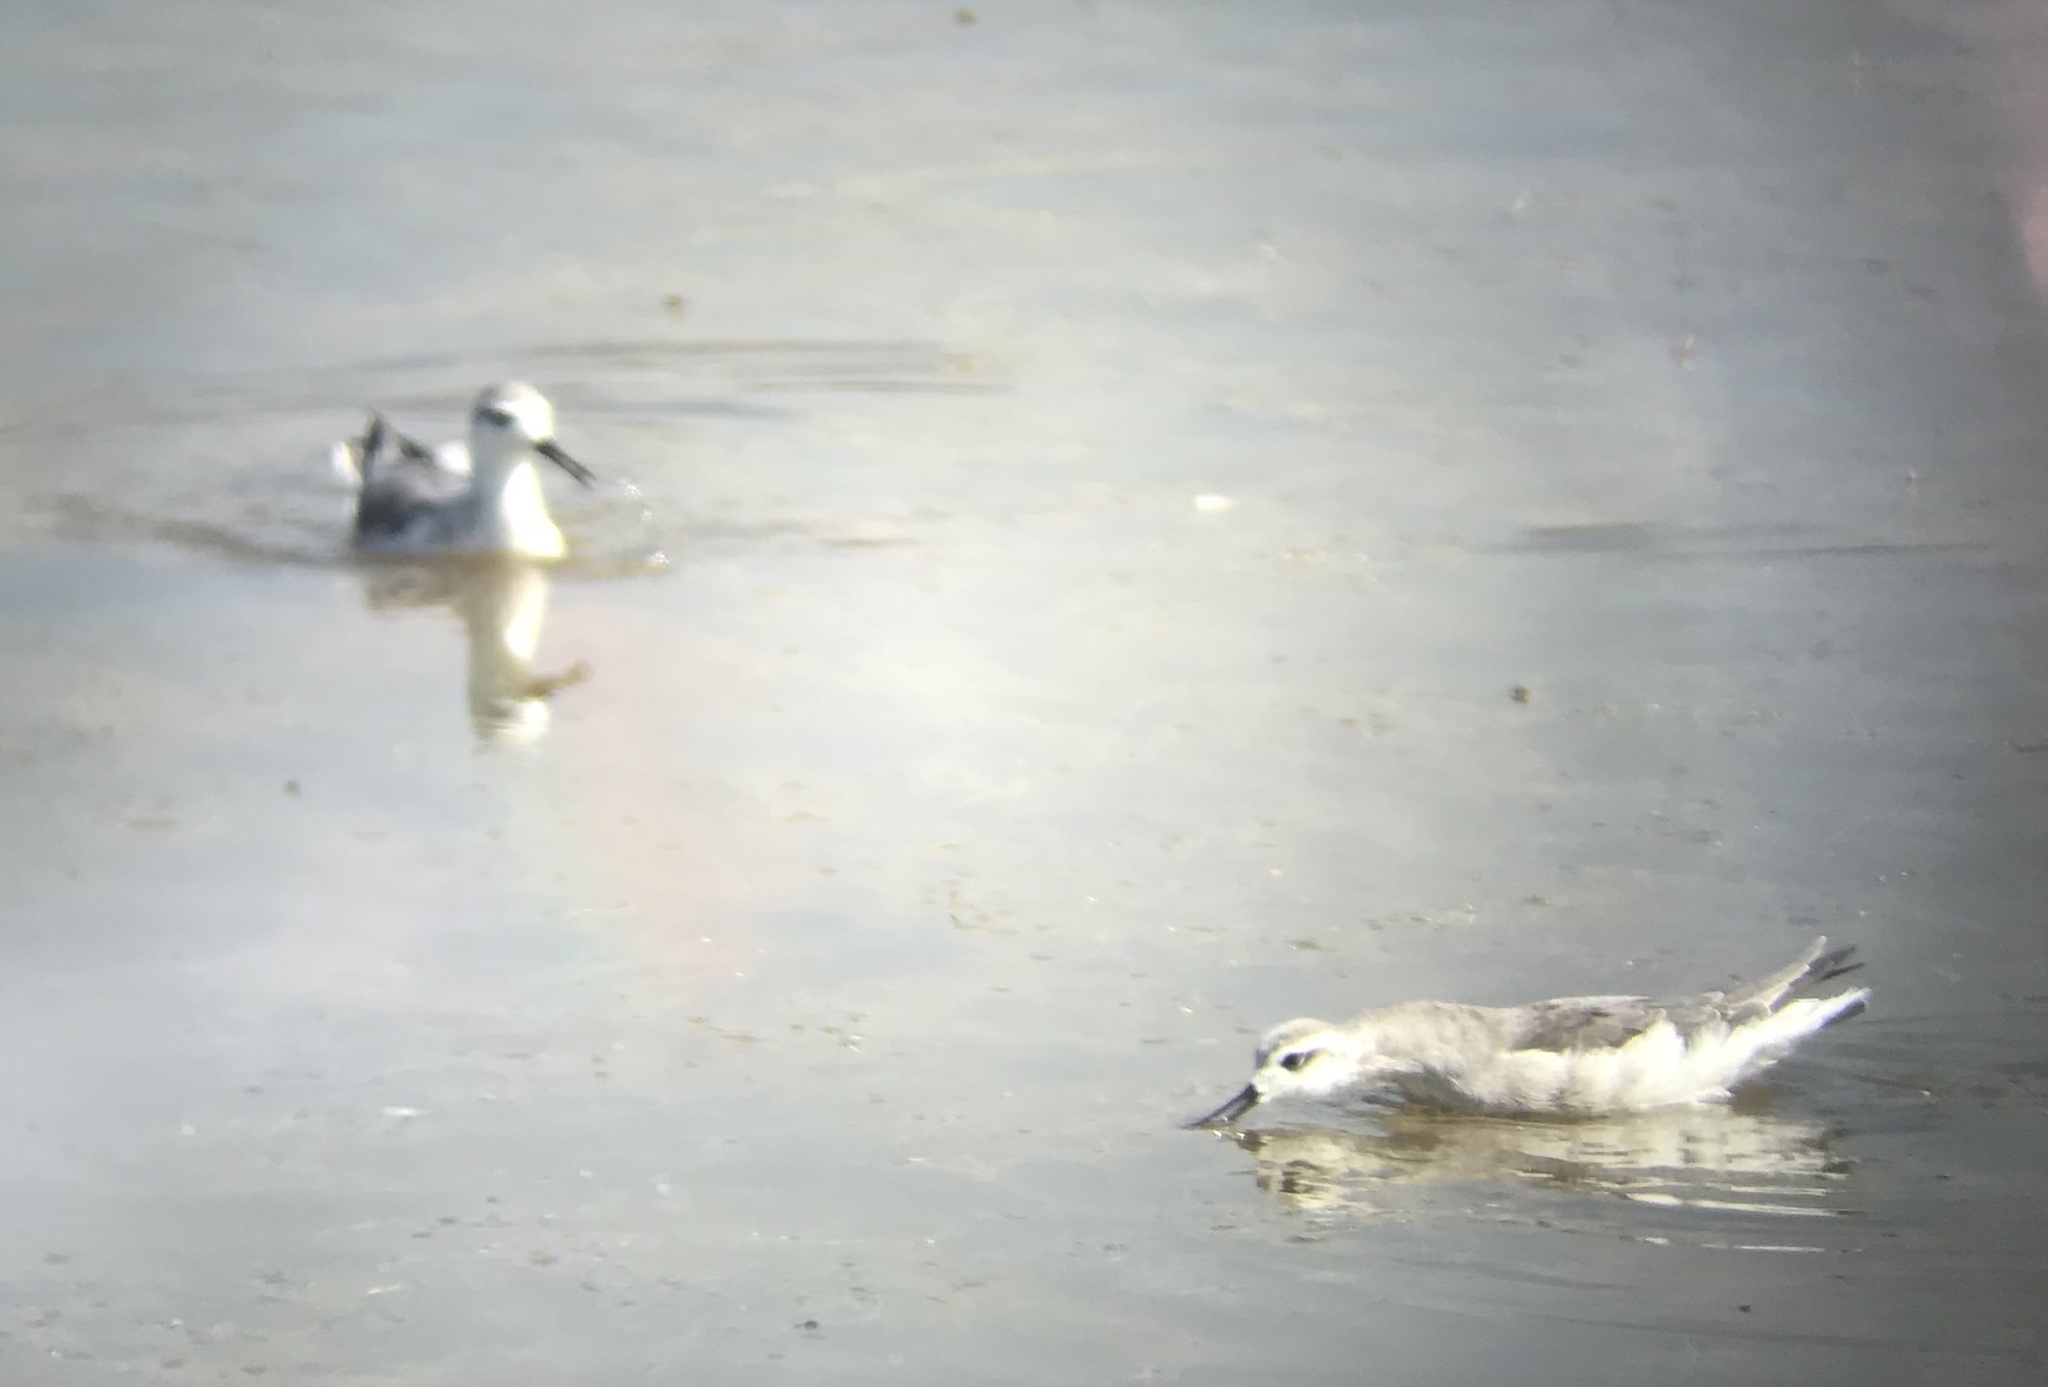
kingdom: Animalia
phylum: Chordata
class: Aves
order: Charadriiformes
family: Scolopacidae
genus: Phalaropus
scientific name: Phalaropus tricolor
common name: Wilson's phalarope
